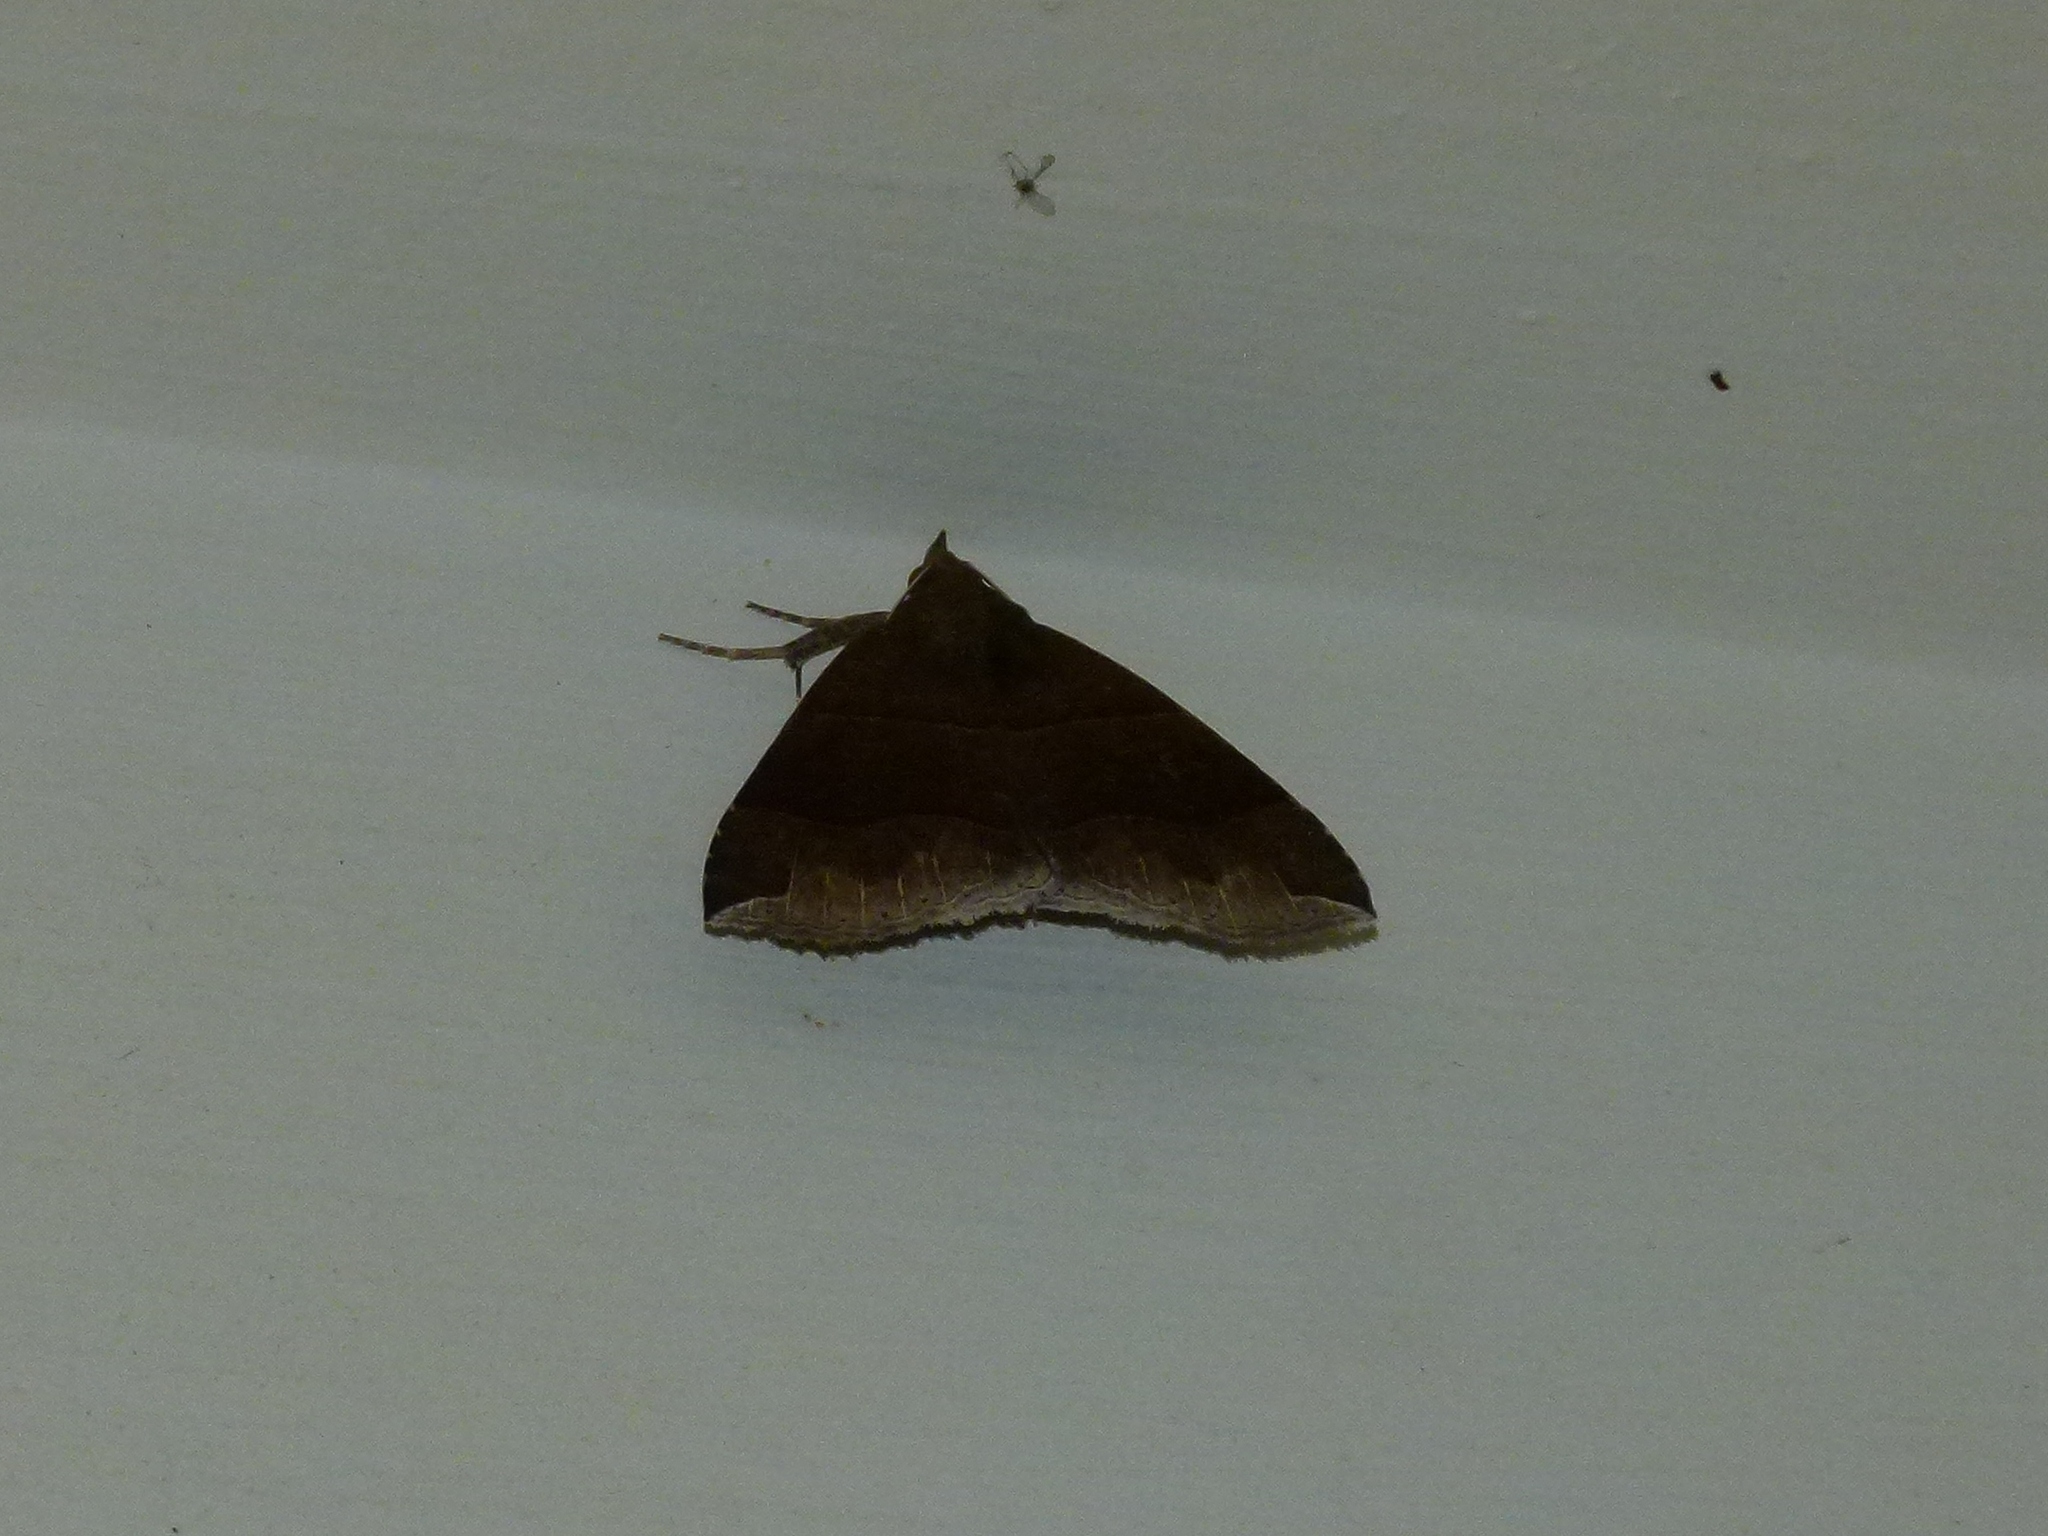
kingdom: Animalia
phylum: Arthropoda
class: Insecta
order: Lepidoptera
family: Erebidae
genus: Parallelia
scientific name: Parallelia bistriaris
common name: Maple looper moth
